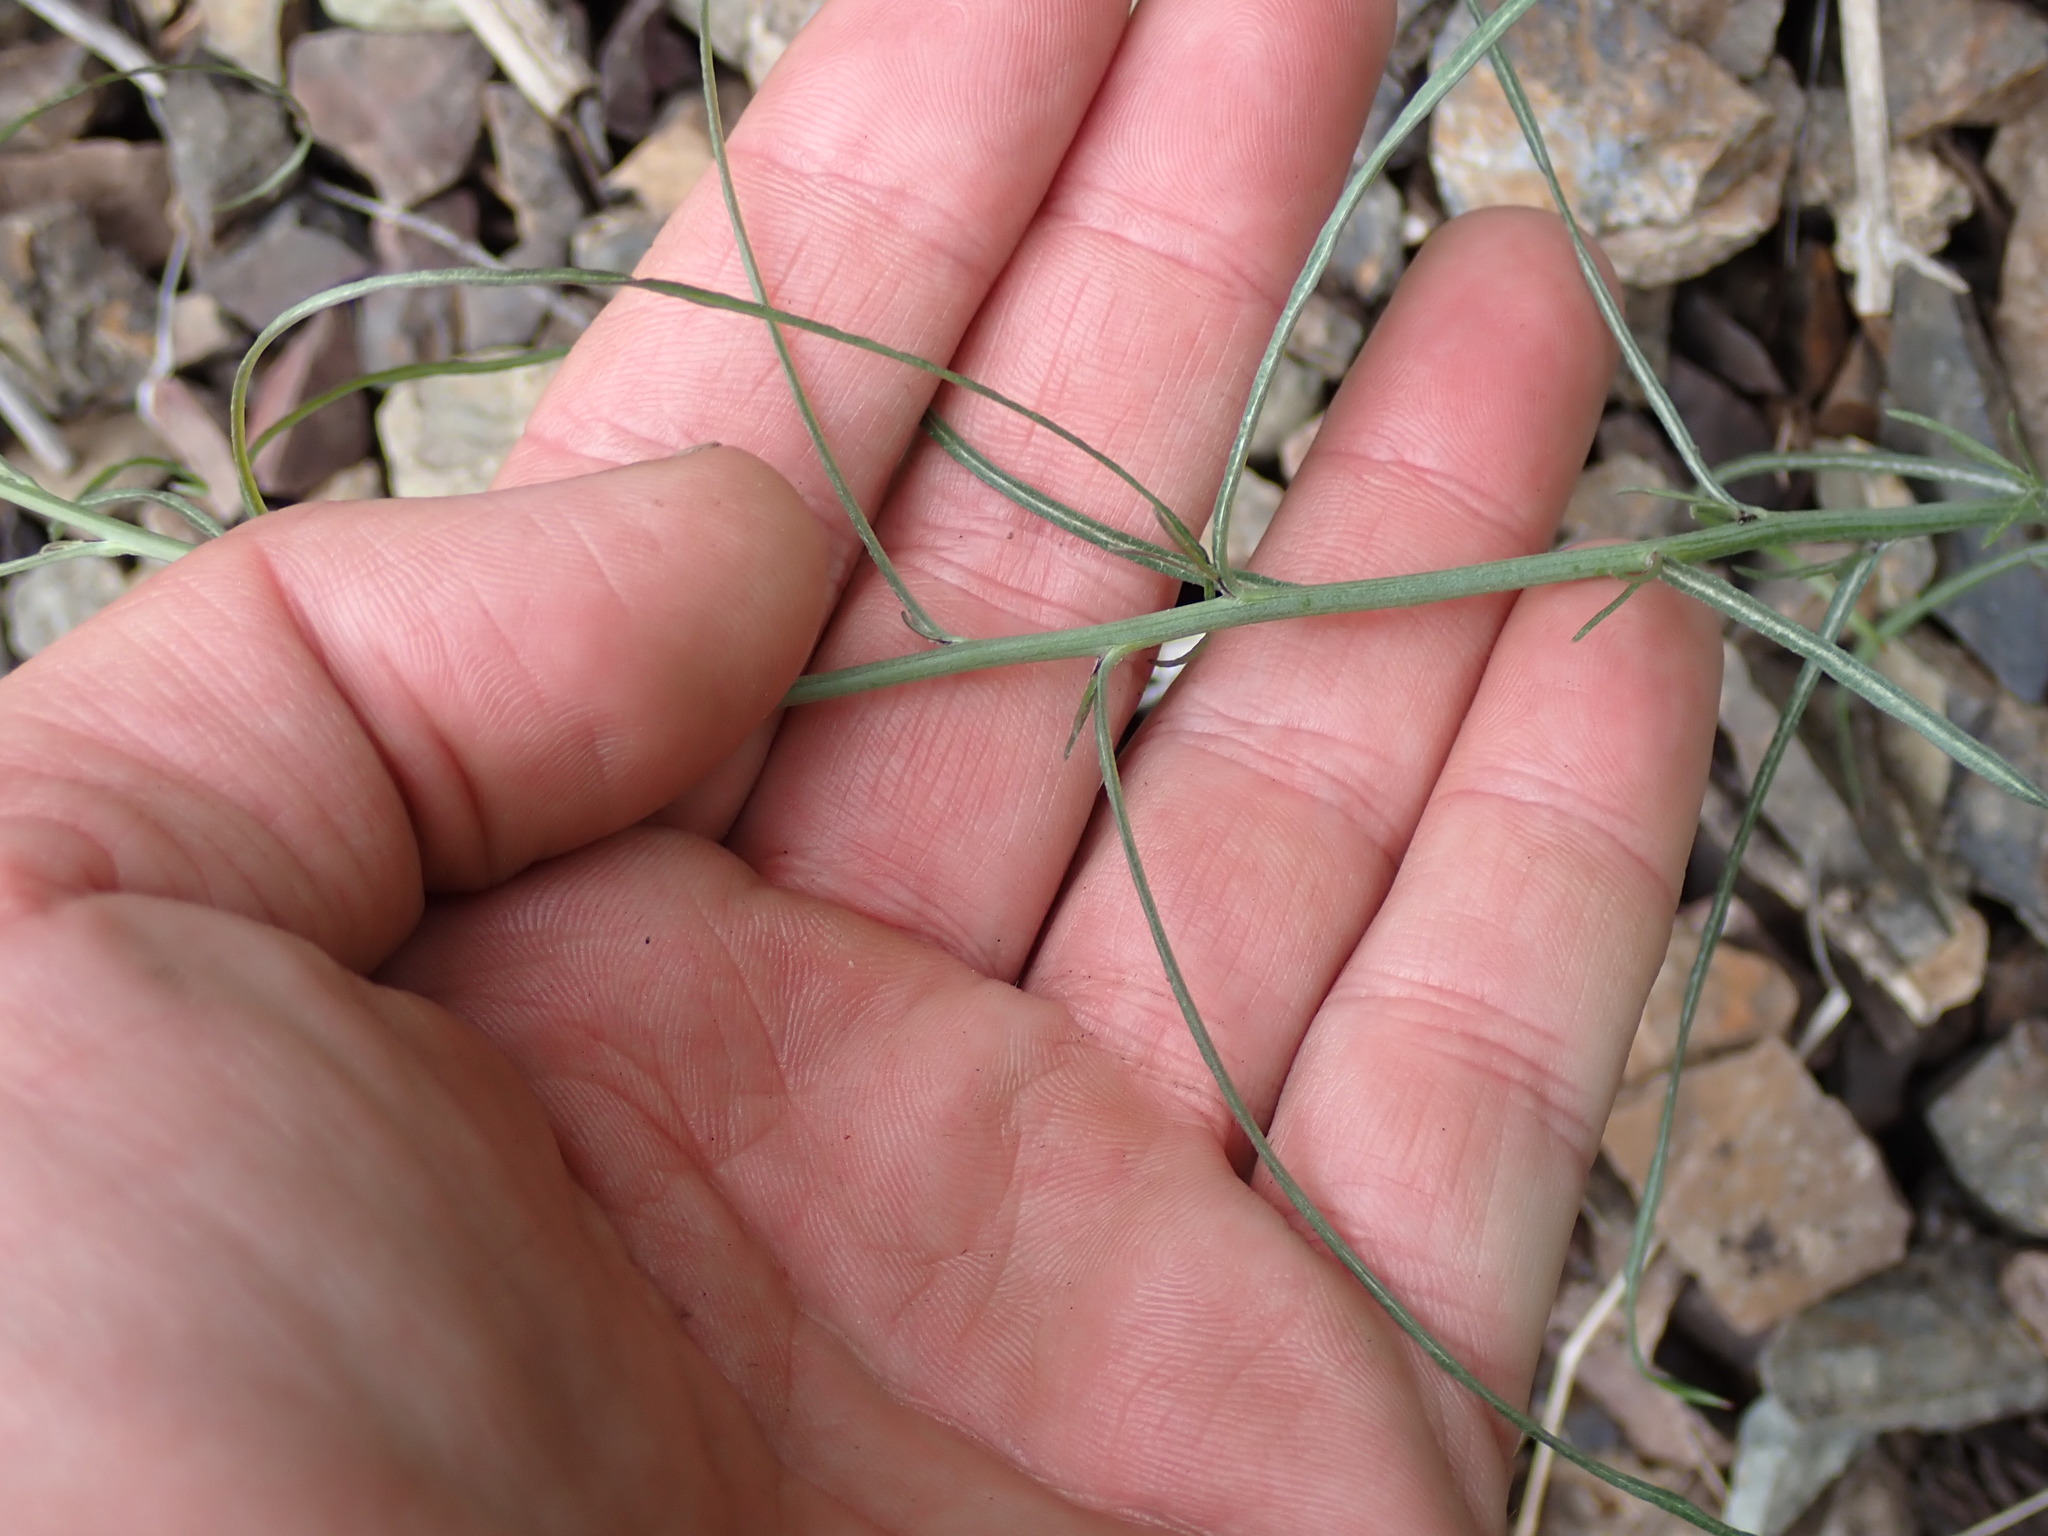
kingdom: Plantae
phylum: Tracheophyta
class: Magnoliopsida
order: Asterales
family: Asteraceae
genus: Crepis
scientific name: Crepis atribarba
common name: Dark hawk's-beard
